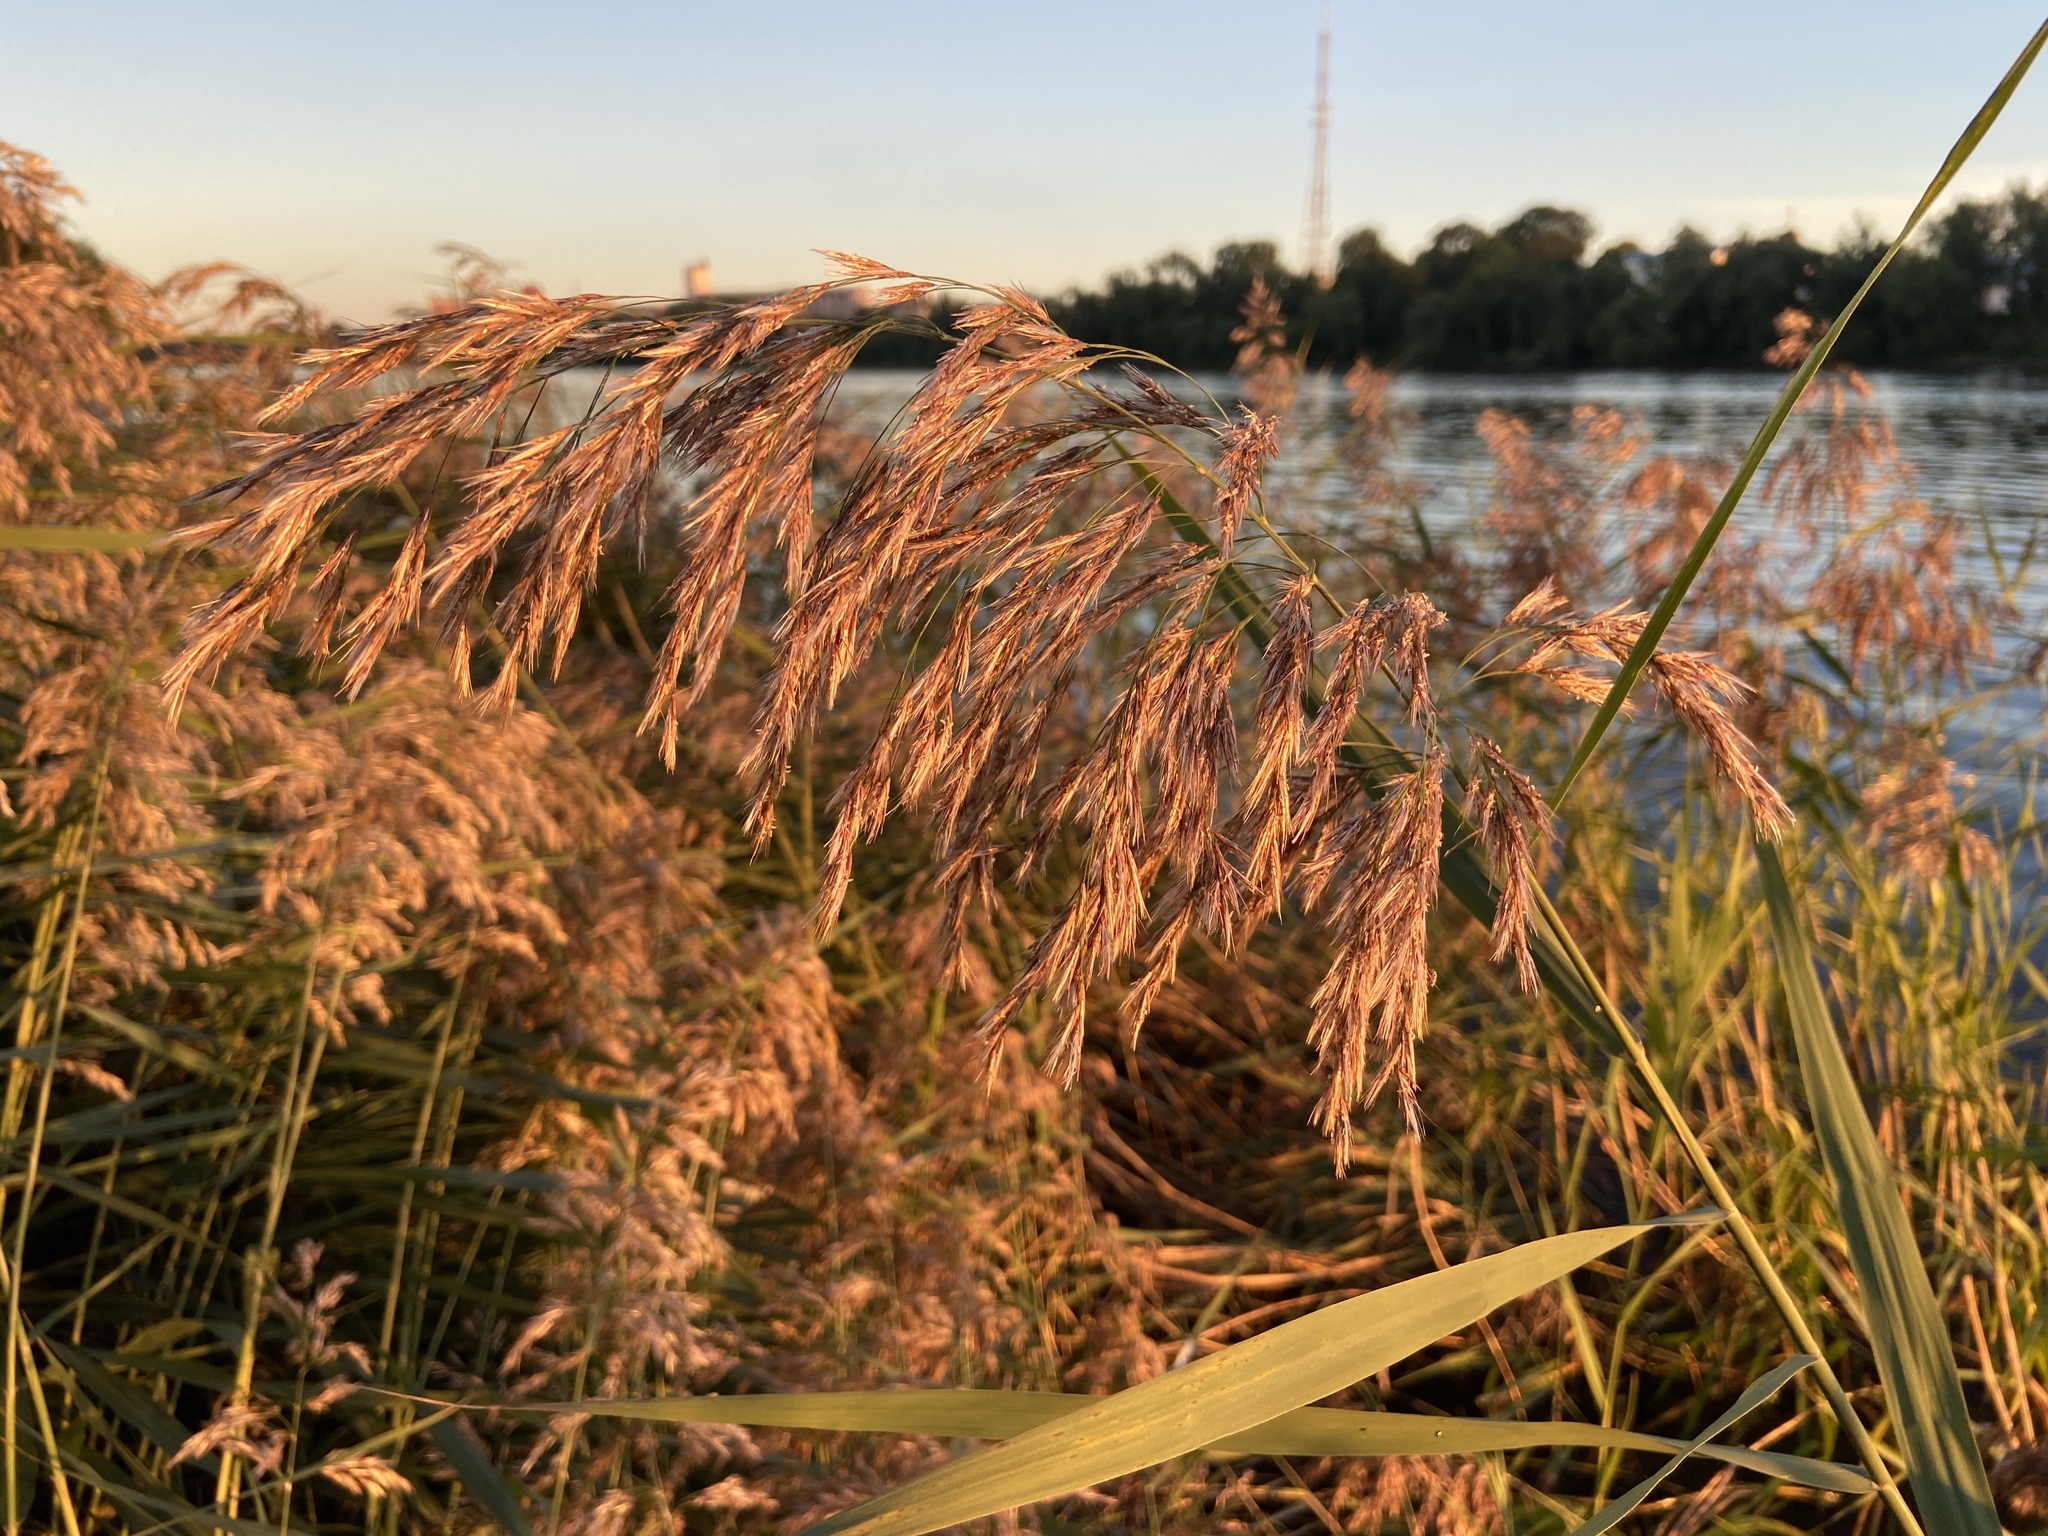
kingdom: Plantae
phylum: Tracheophyta
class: Liliopsida
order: Poales
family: Poaceae
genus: Phragmites
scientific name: Phragmites australis
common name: Common reed
